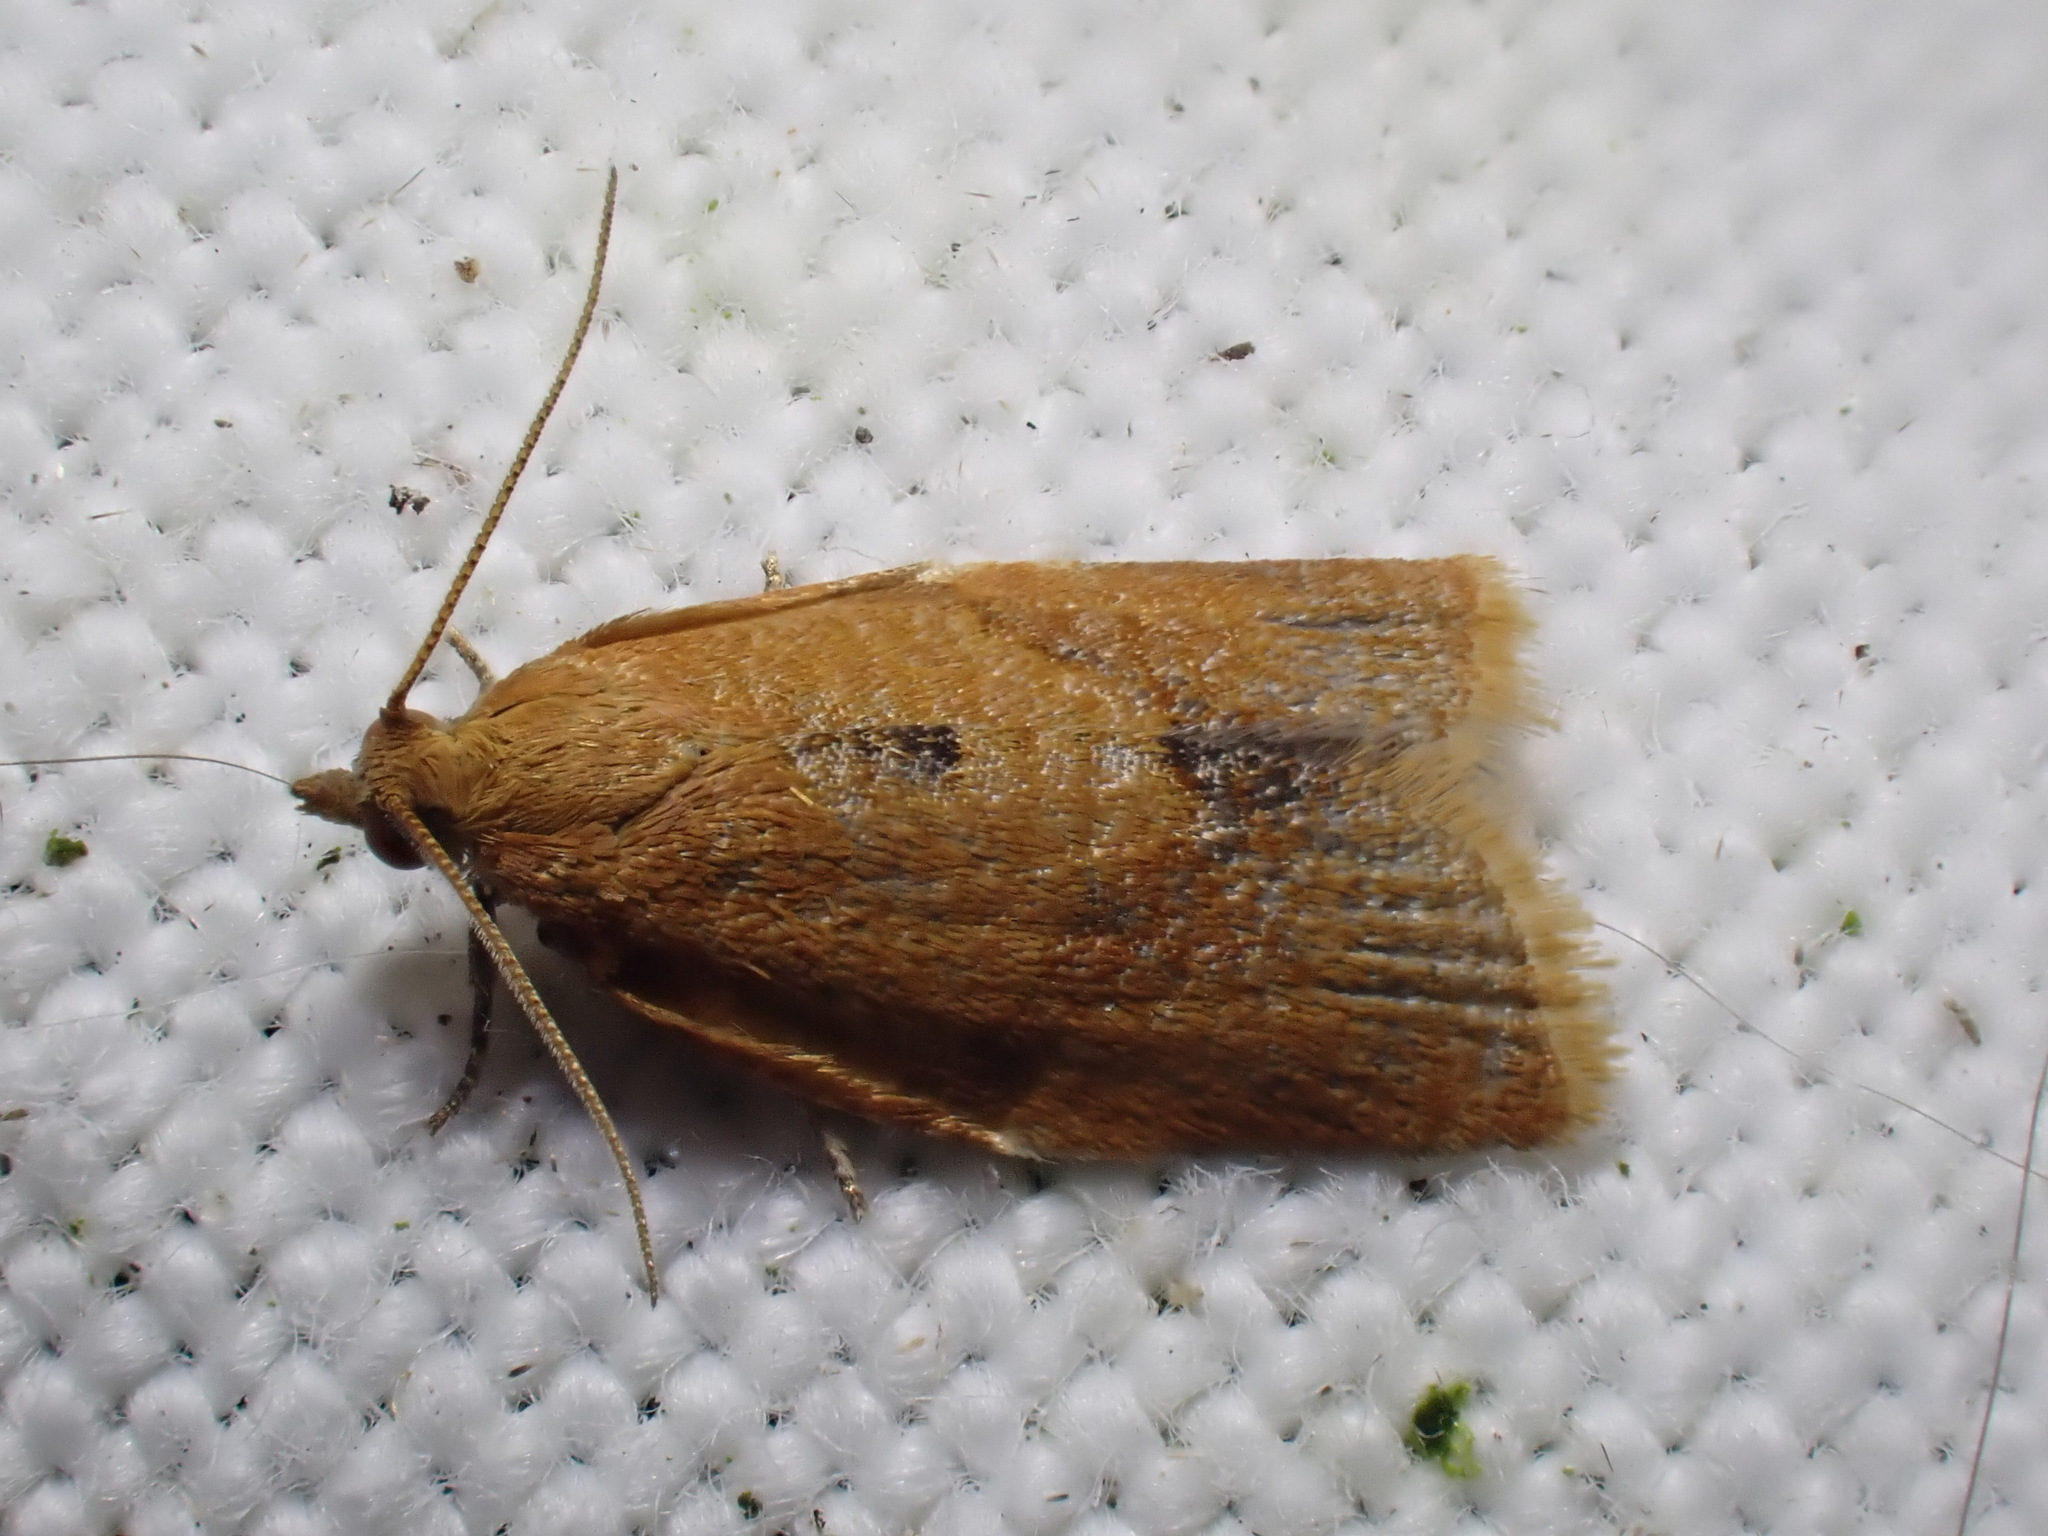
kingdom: Animalia
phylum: Arthropoda
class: Insecta
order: Lepidoptera
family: Tortricidae
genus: Clepsis
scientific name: Clepsis consimilana
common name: Privet tortrix
